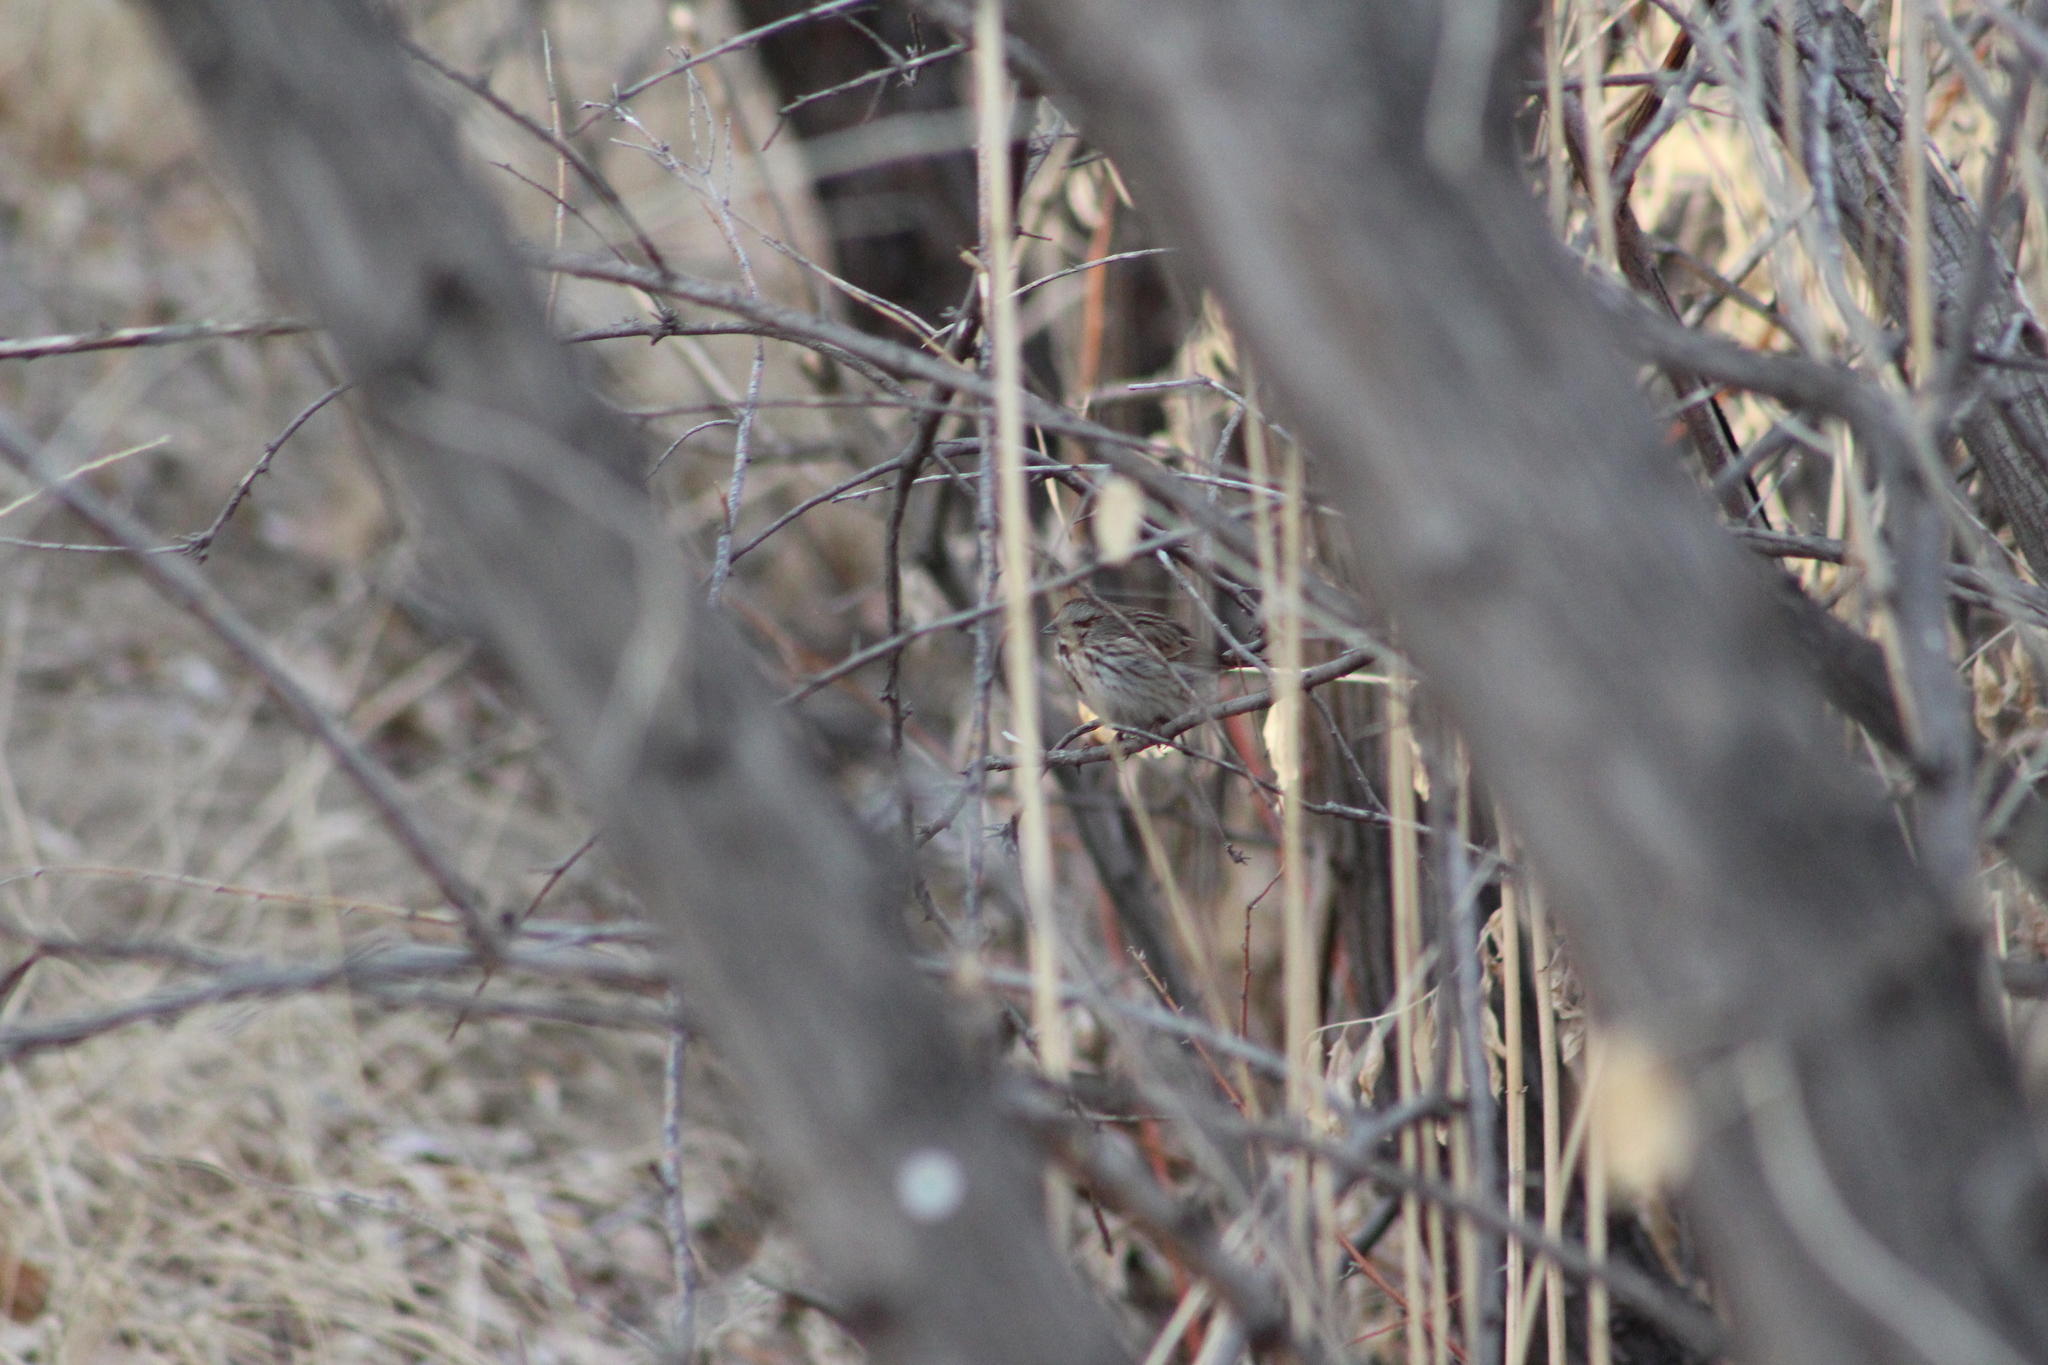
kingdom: Animalia
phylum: Chordata
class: Aves
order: Passeriformes
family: Passerellidae
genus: Melospiza
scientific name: Melospiza melodia
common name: Song sparrow
